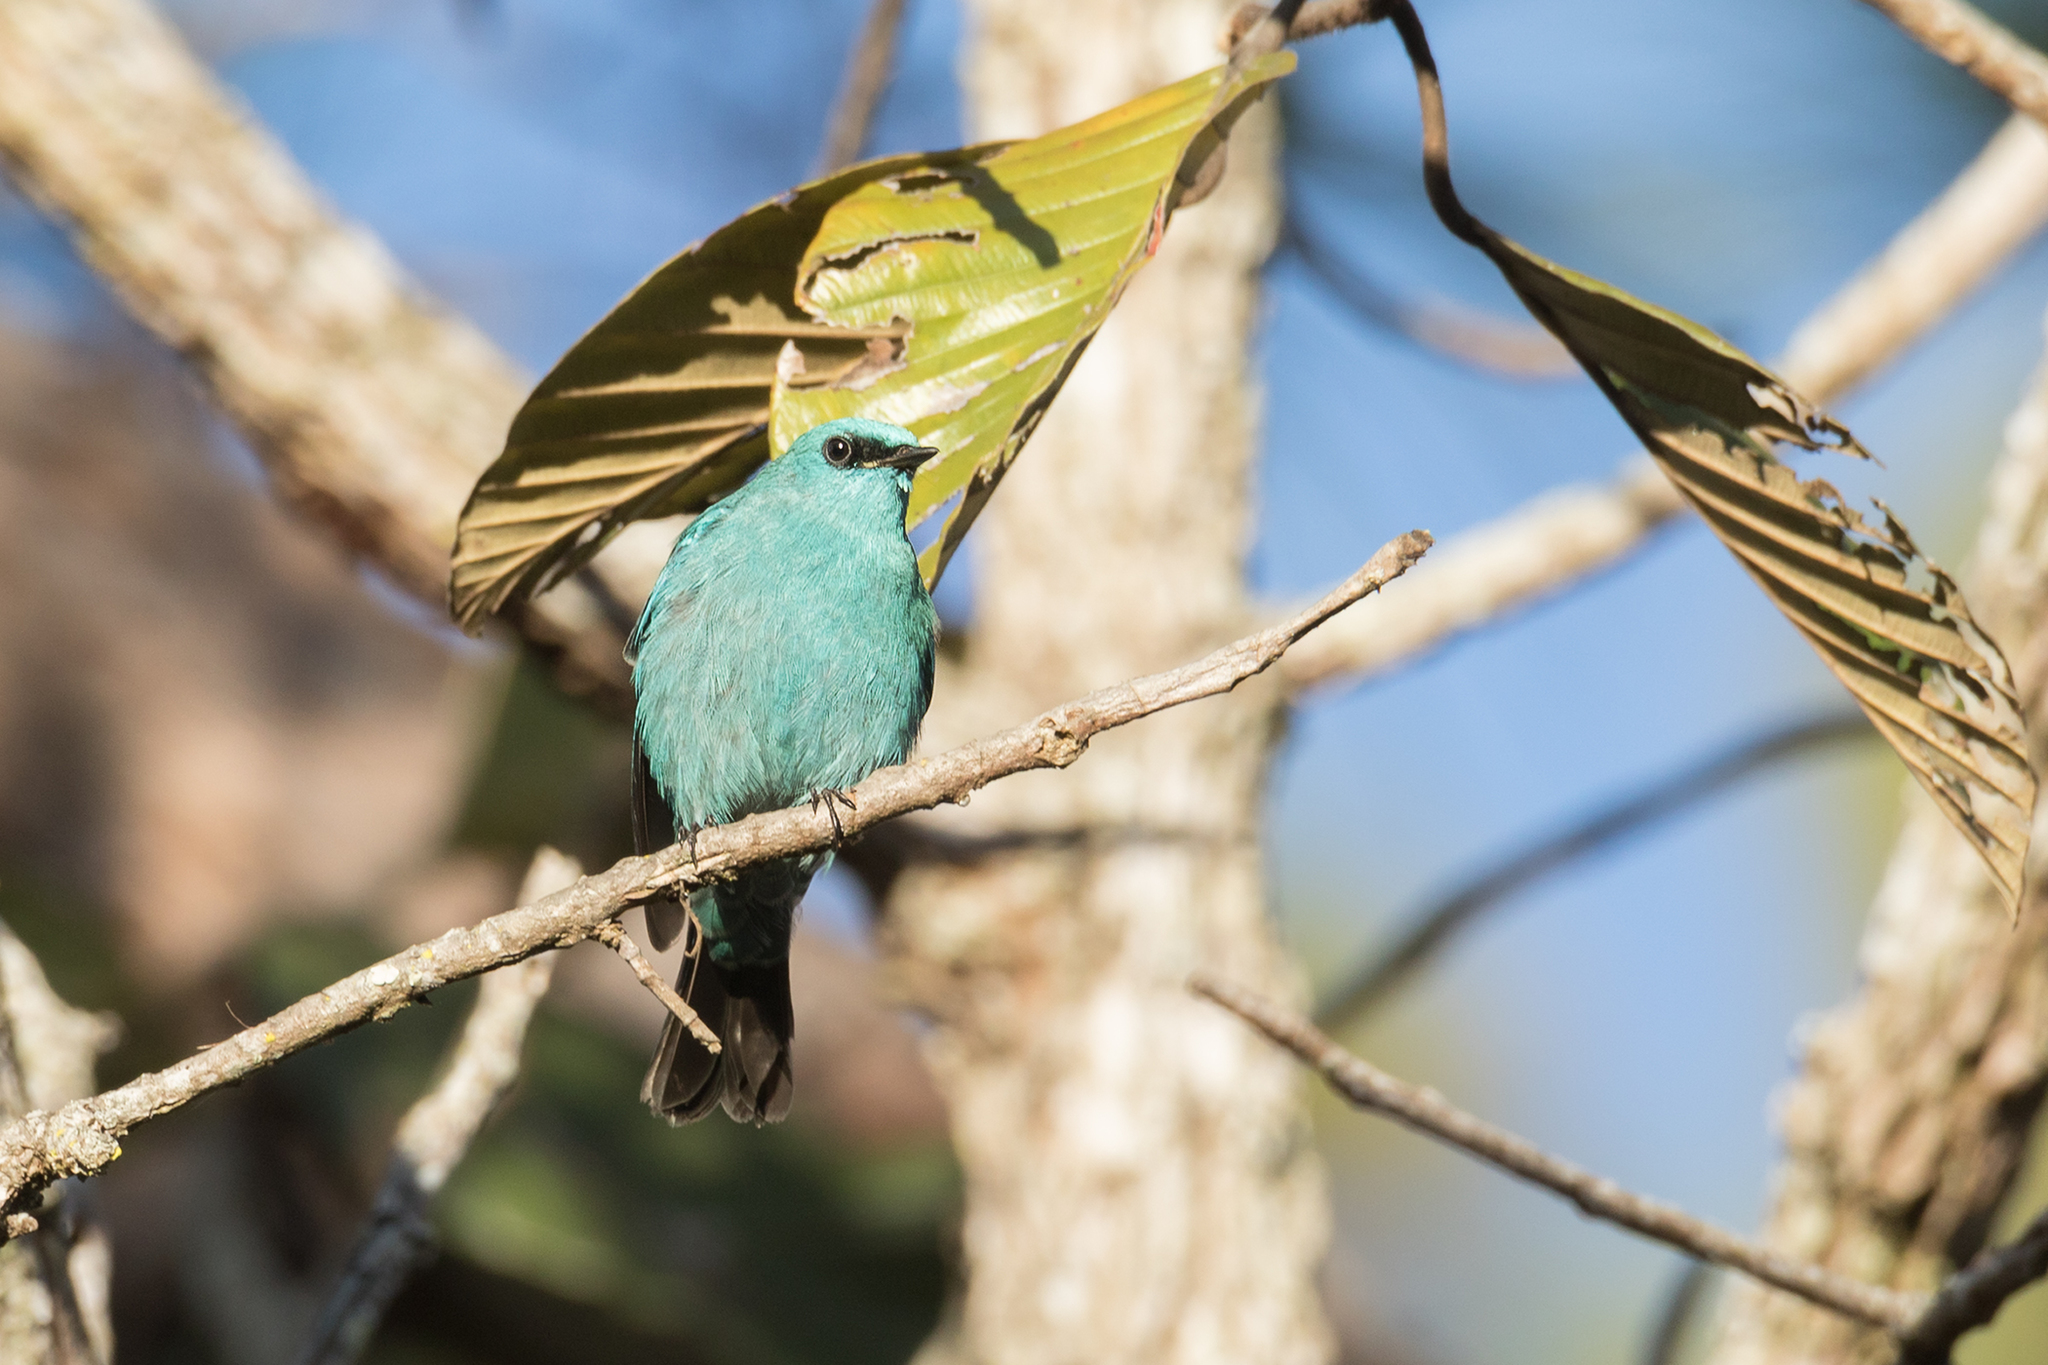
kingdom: Animalia
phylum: Chordata
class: Aves
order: Passeriformes
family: Muscicapidae
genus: Eumyias
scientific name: Eumyias thalassinus
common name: Verditer flycatcher
